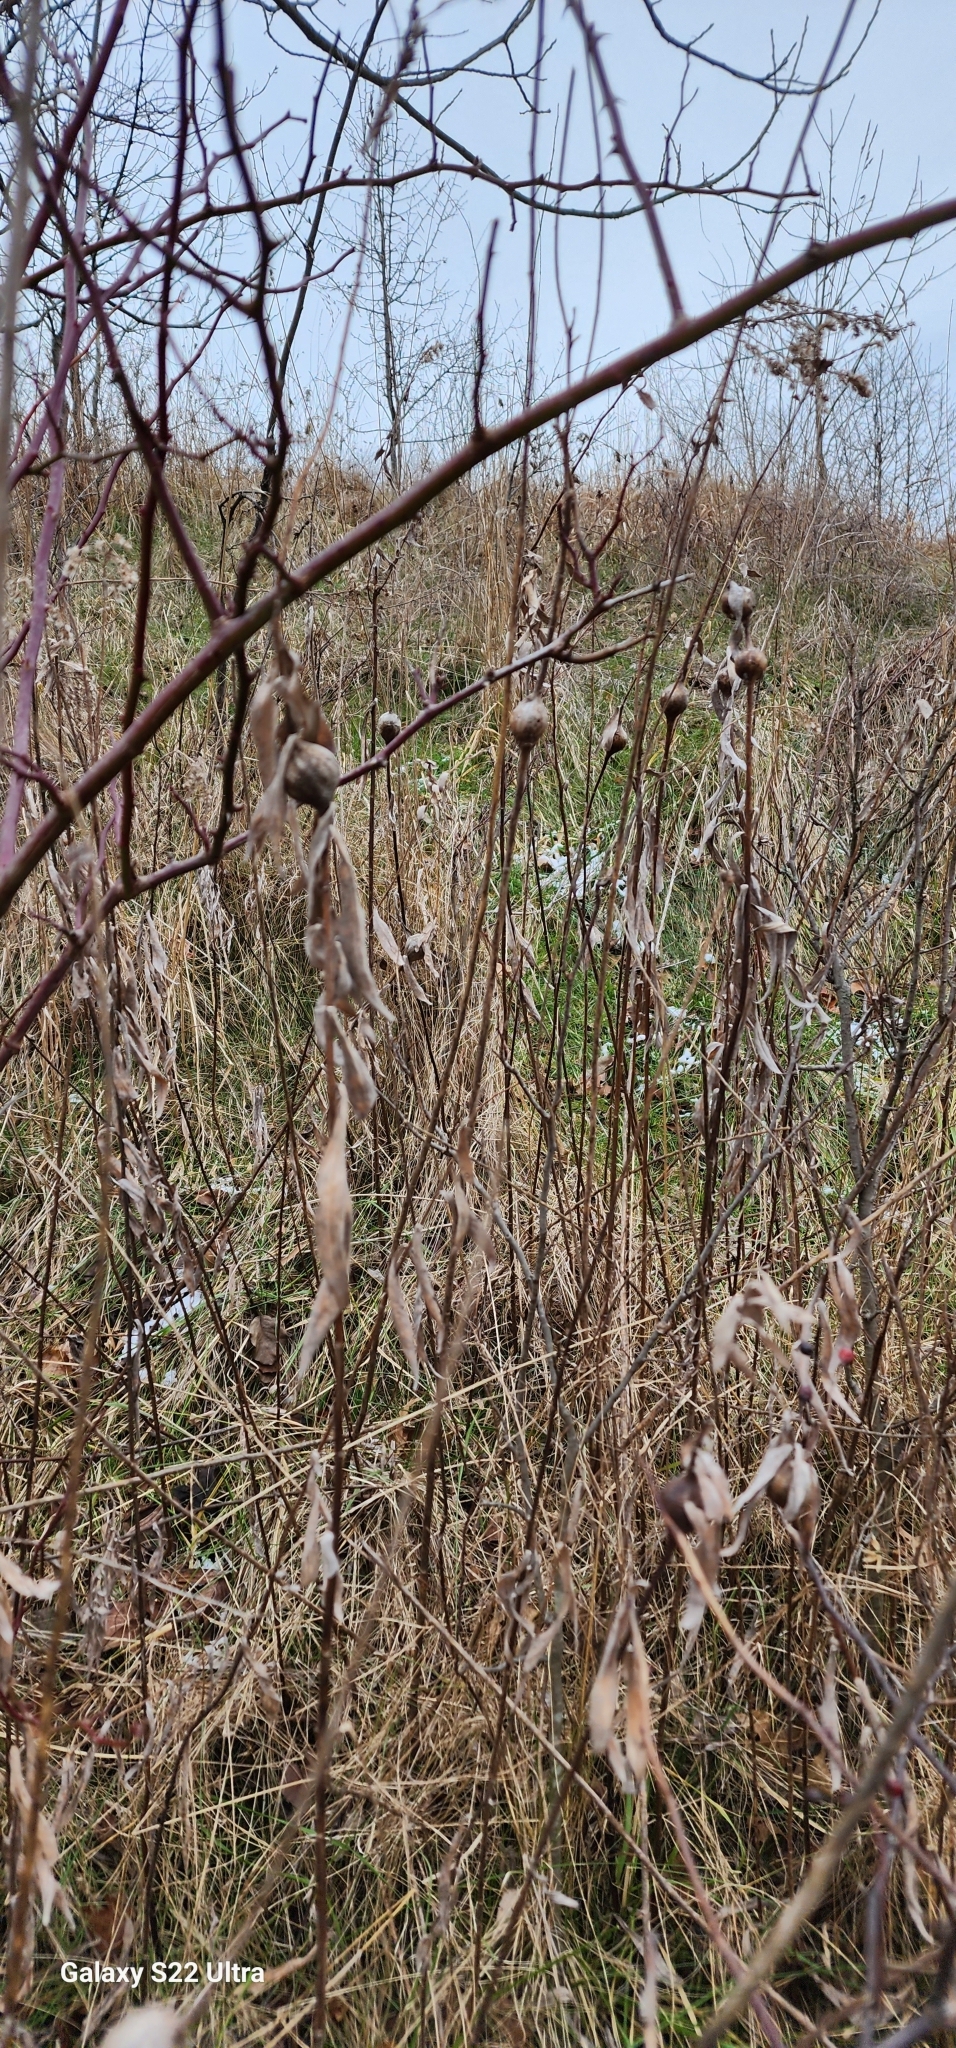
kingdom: Animalia
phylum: Arthropoda
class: Insecta
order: Diptera
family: Tephritidae
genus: Eurosta
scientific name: Eurosta solidaginis
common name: Goldenrod gall fly
